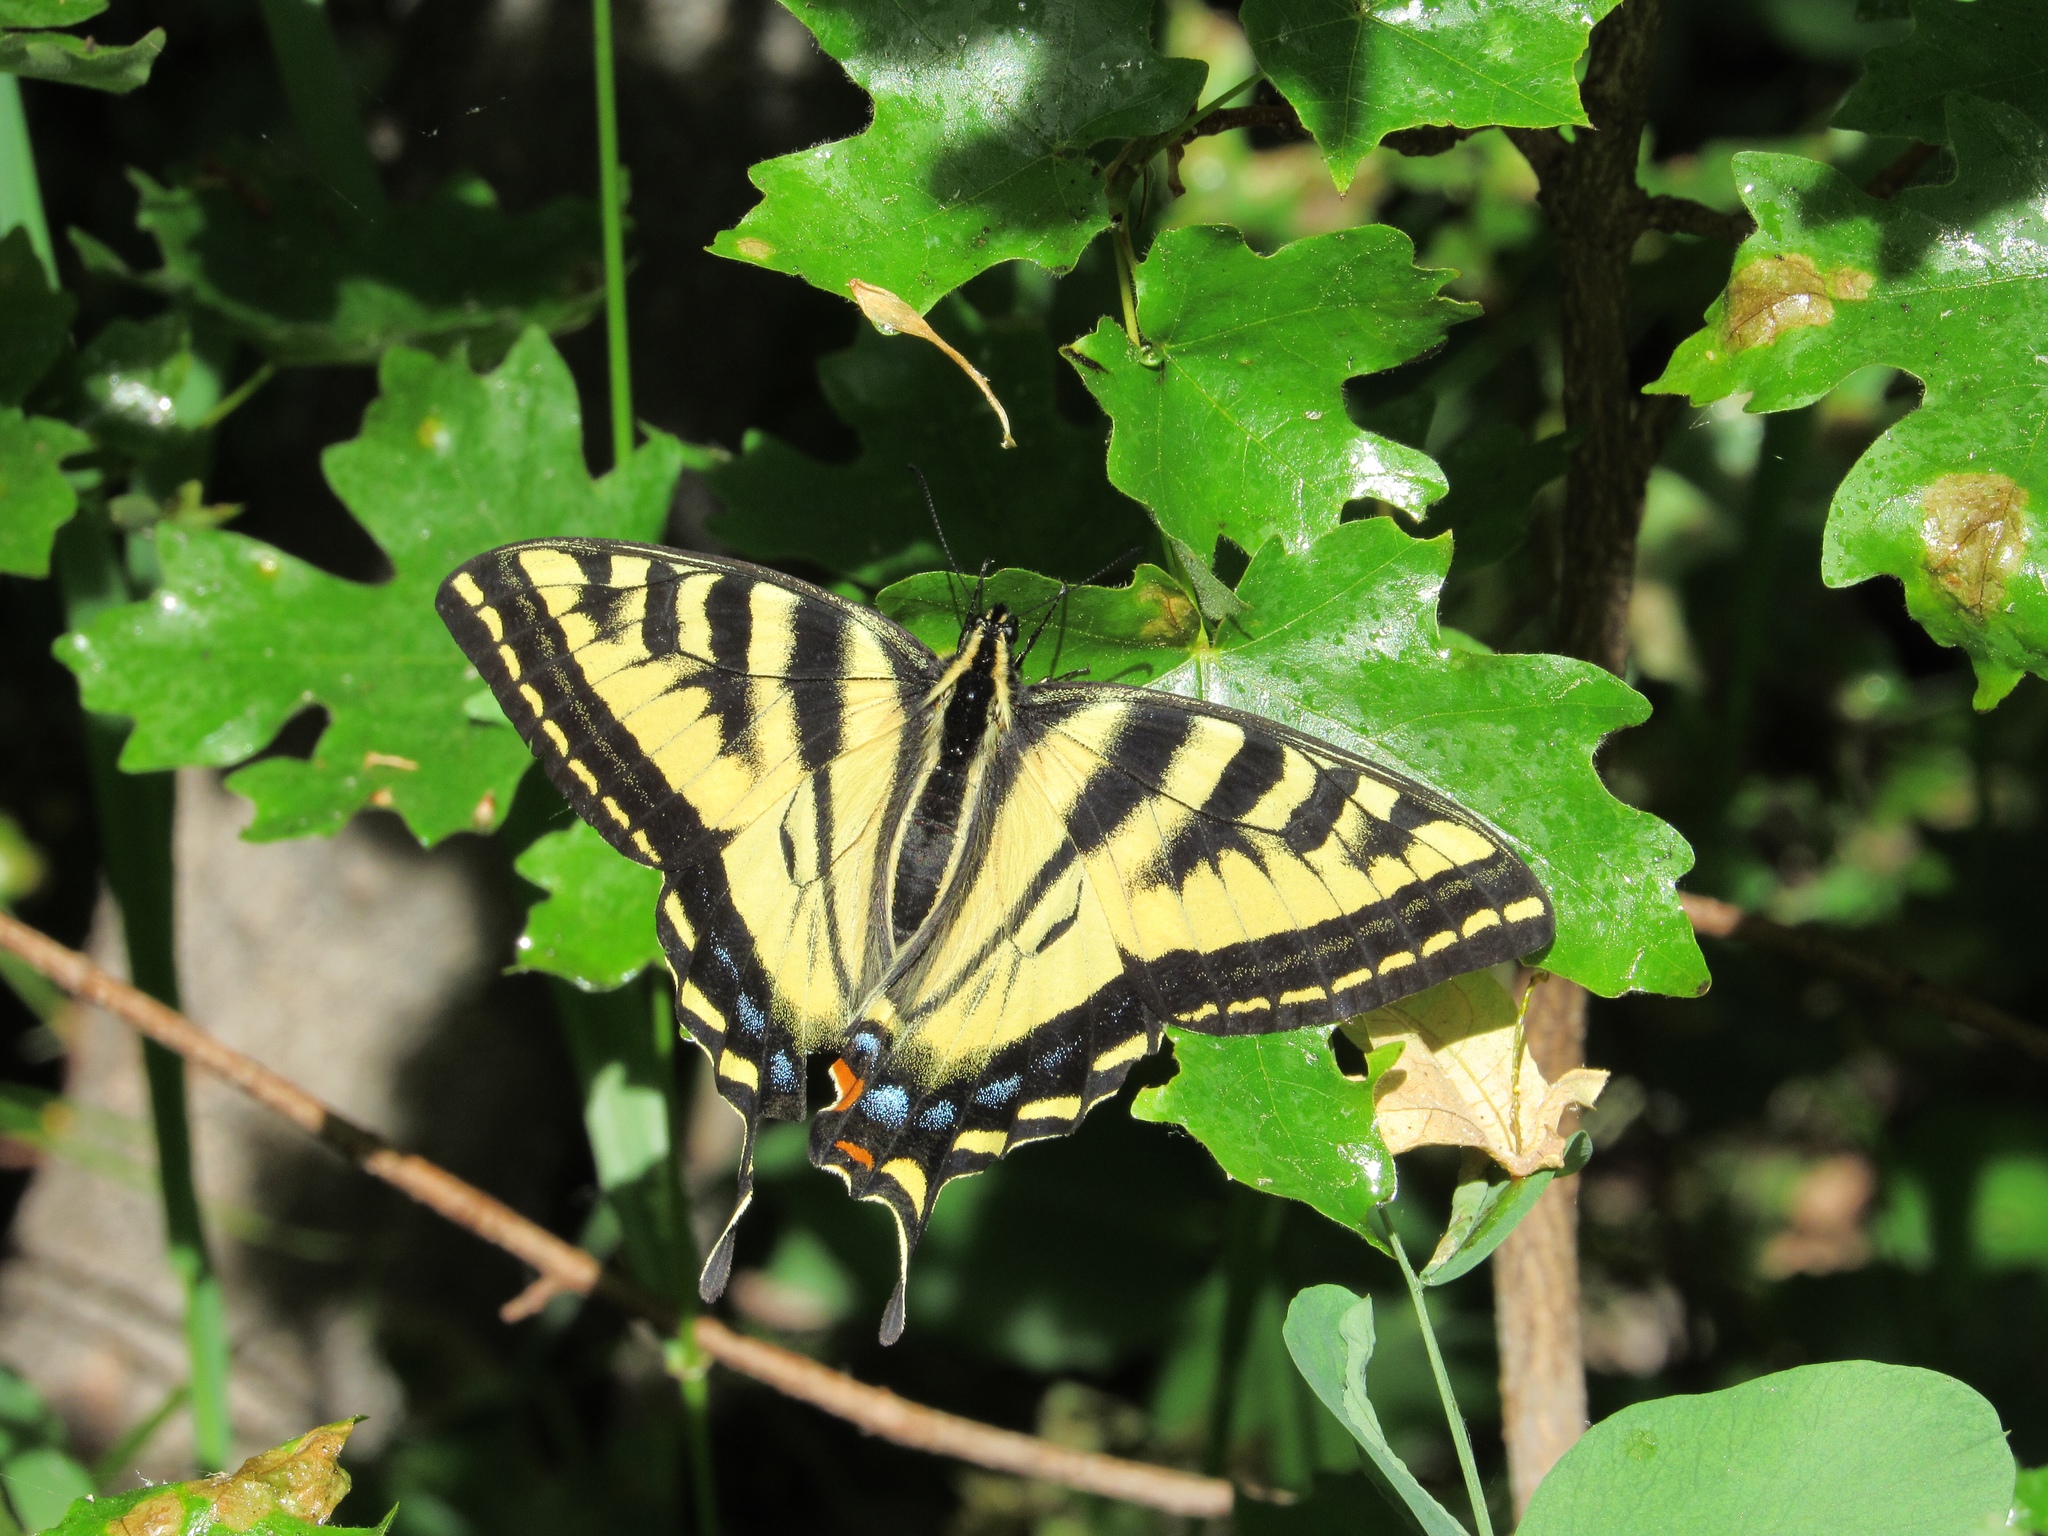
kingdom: Animalia
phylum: Arthropoda
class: Insecta
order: Lepidoptera
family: Papilionidae
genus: Papilio
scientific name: Papilio rutulus
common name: Western tiger swallowtail
